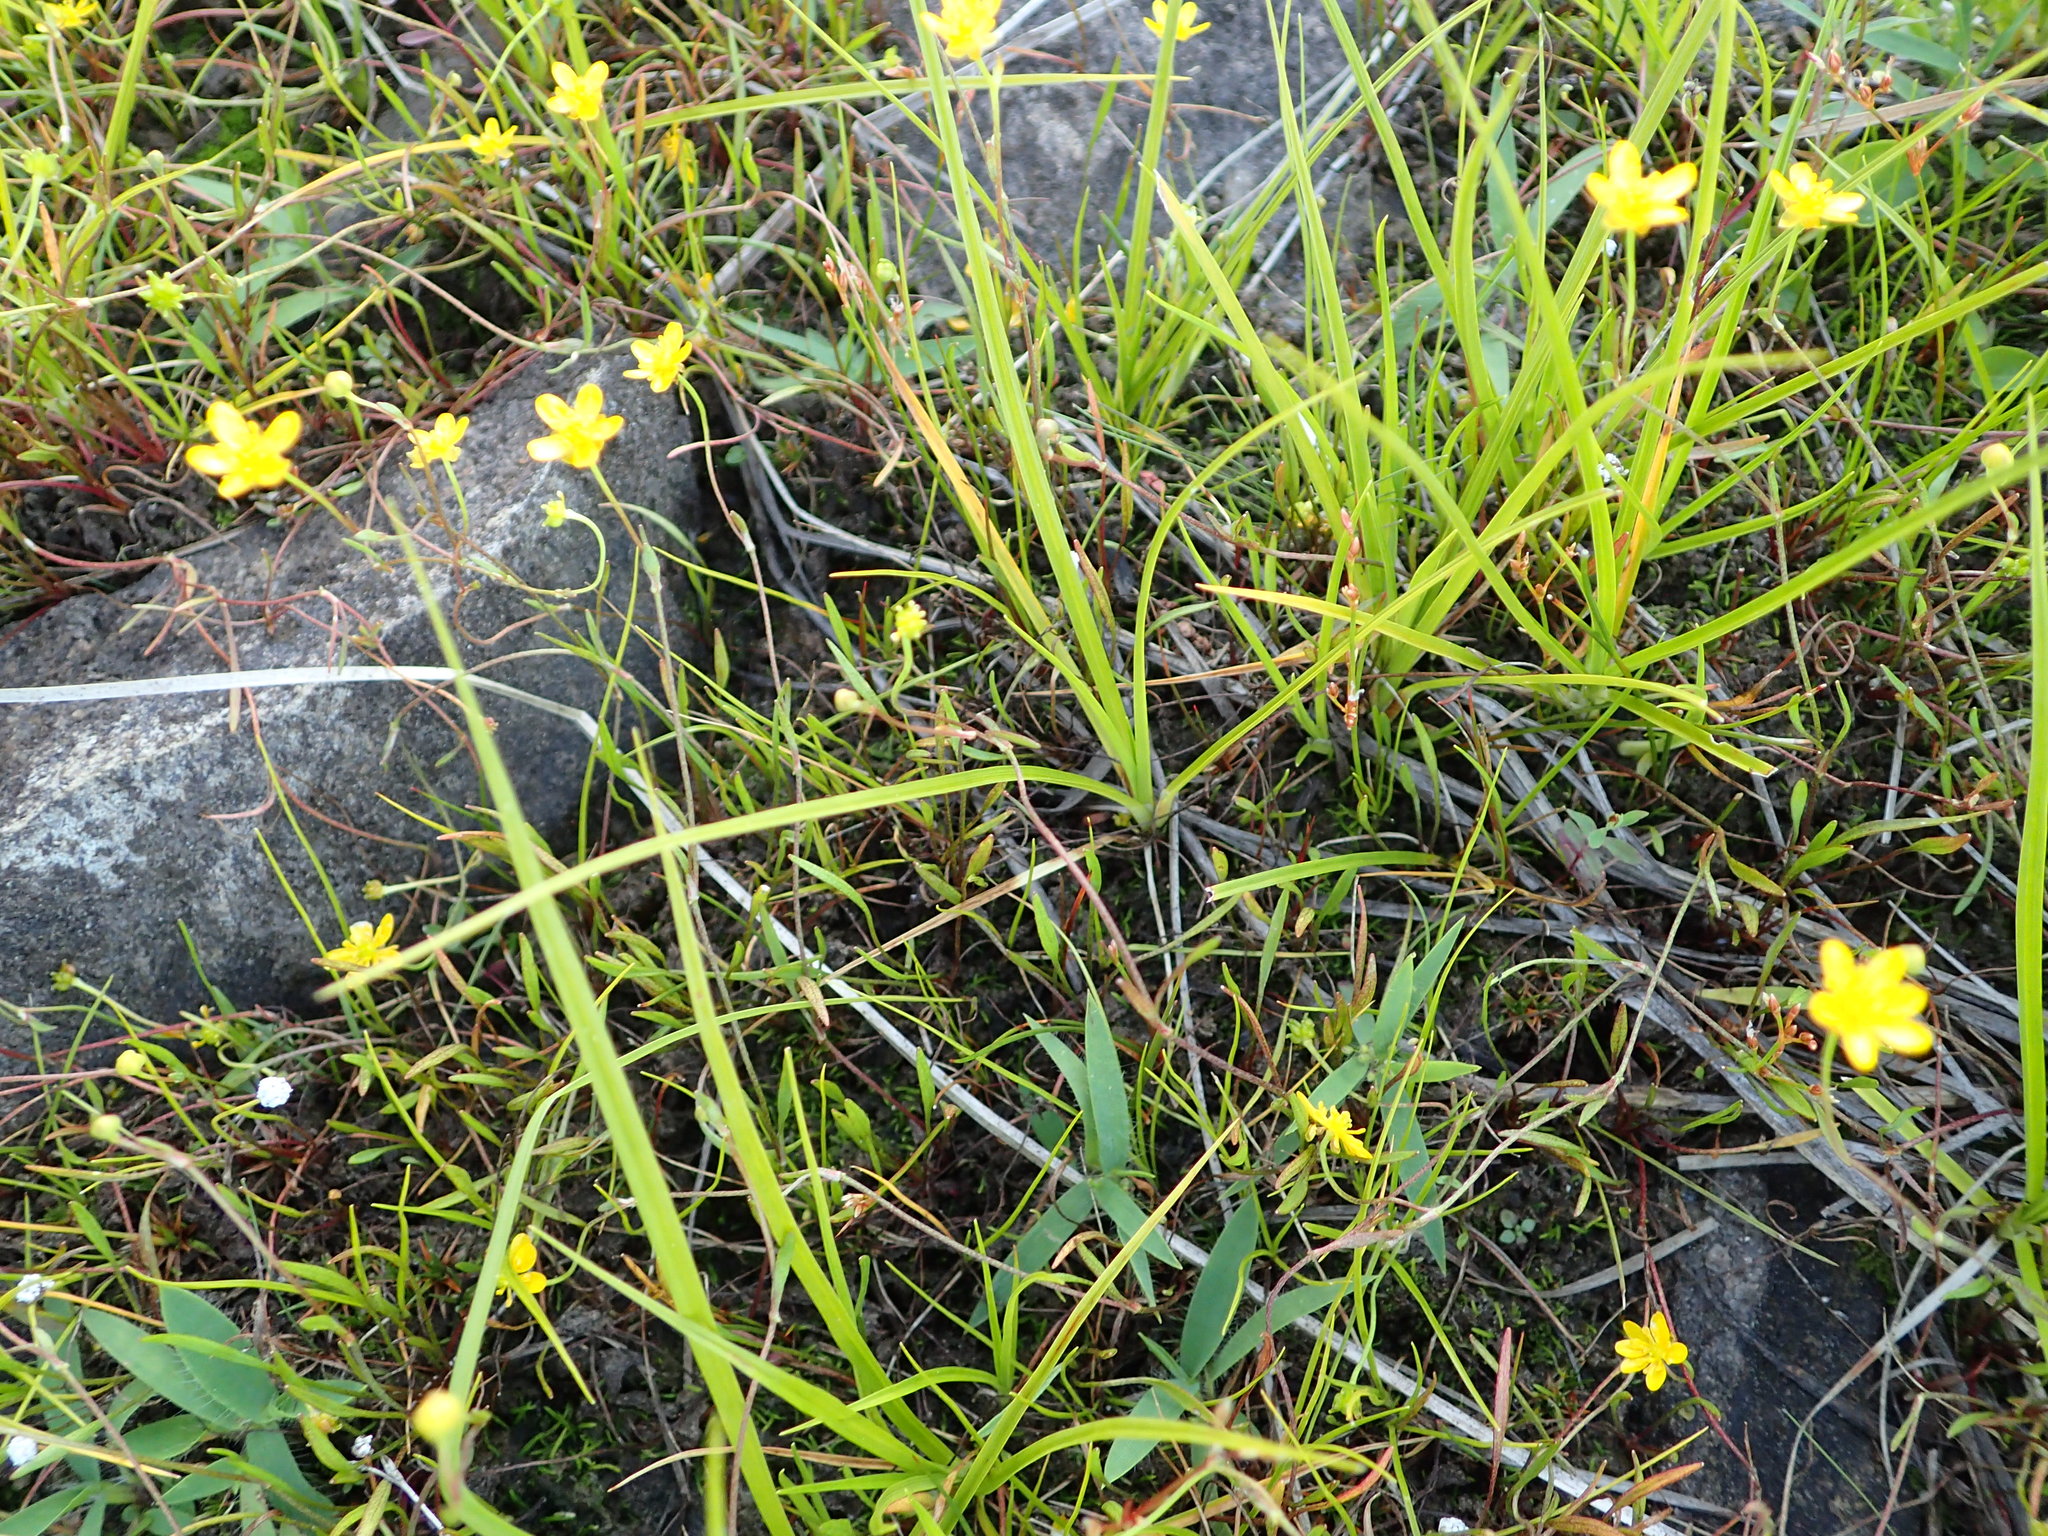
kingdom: Plantae
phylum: Tracheophyta
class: Magnoliopsida
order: Ranunculales
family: Ranunculaceae
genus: Ranunculus
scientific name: Ranunculus reptans
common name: Creeping spearwort
